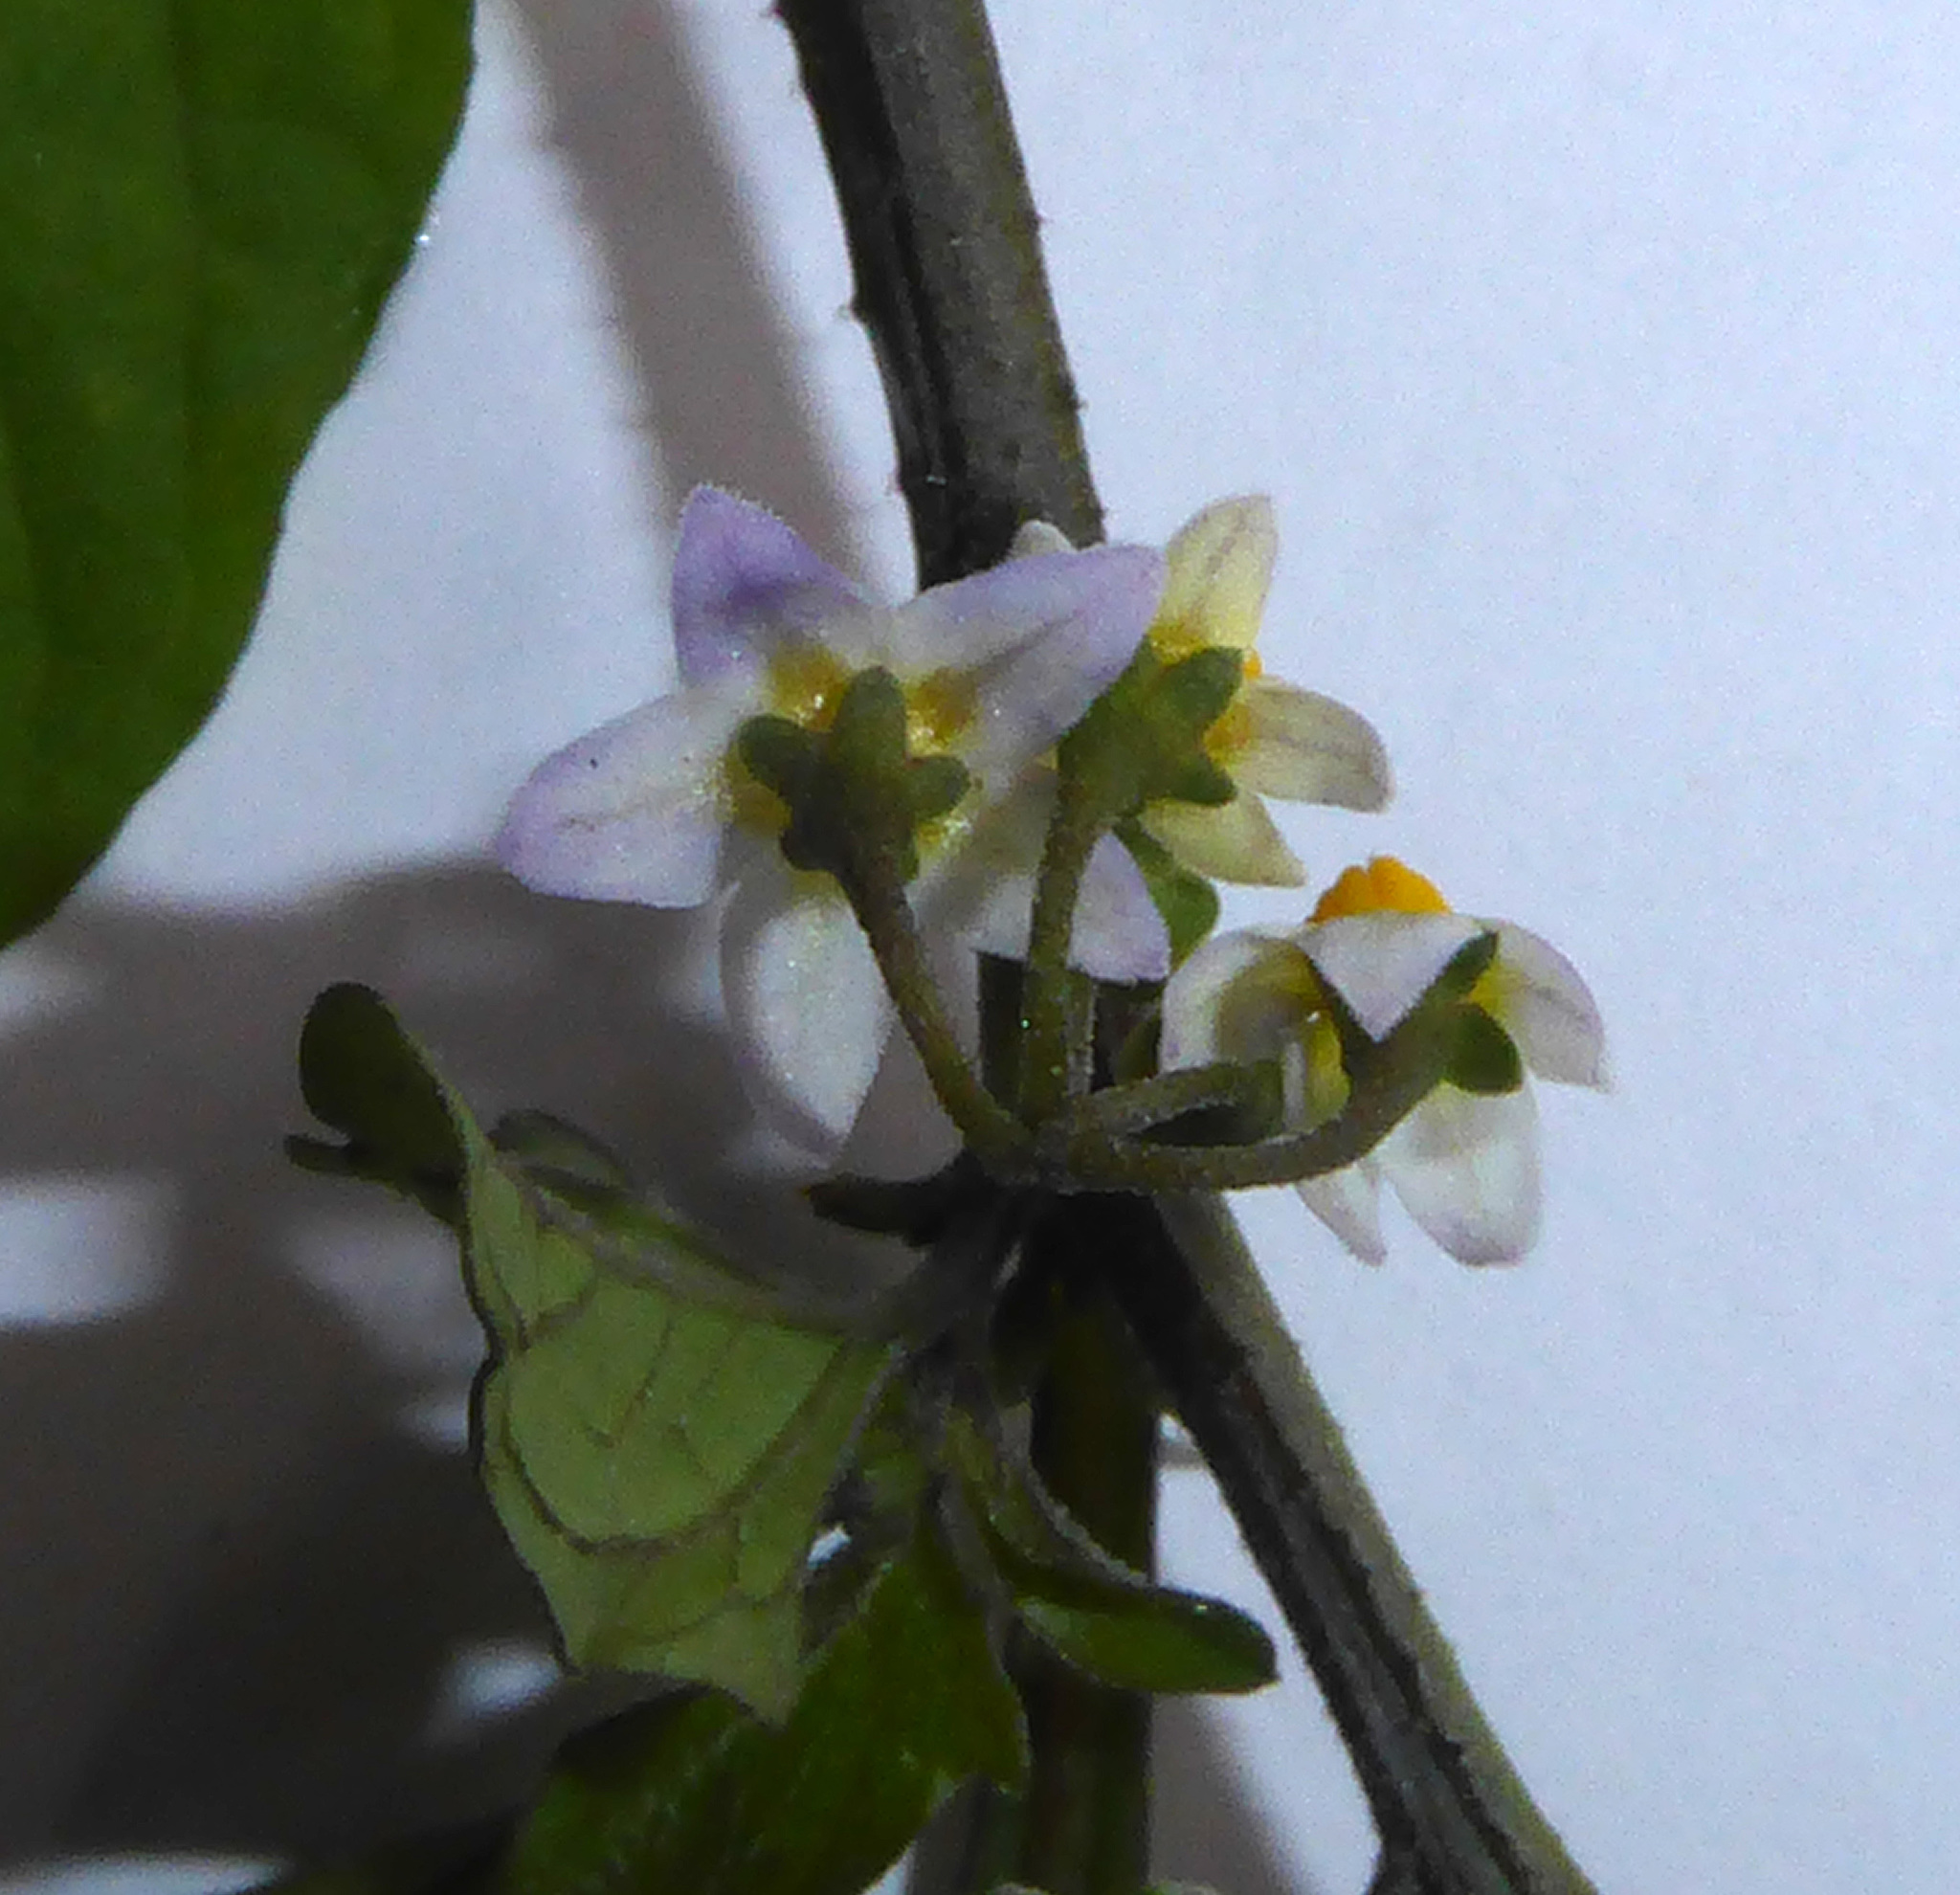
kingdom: Plantae
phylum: Tracheophyta
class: Magnoliopsida
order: Solanales
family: Solanaceae
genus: Solanum
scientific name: Solanum opacum
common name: Green-berry nightshade
